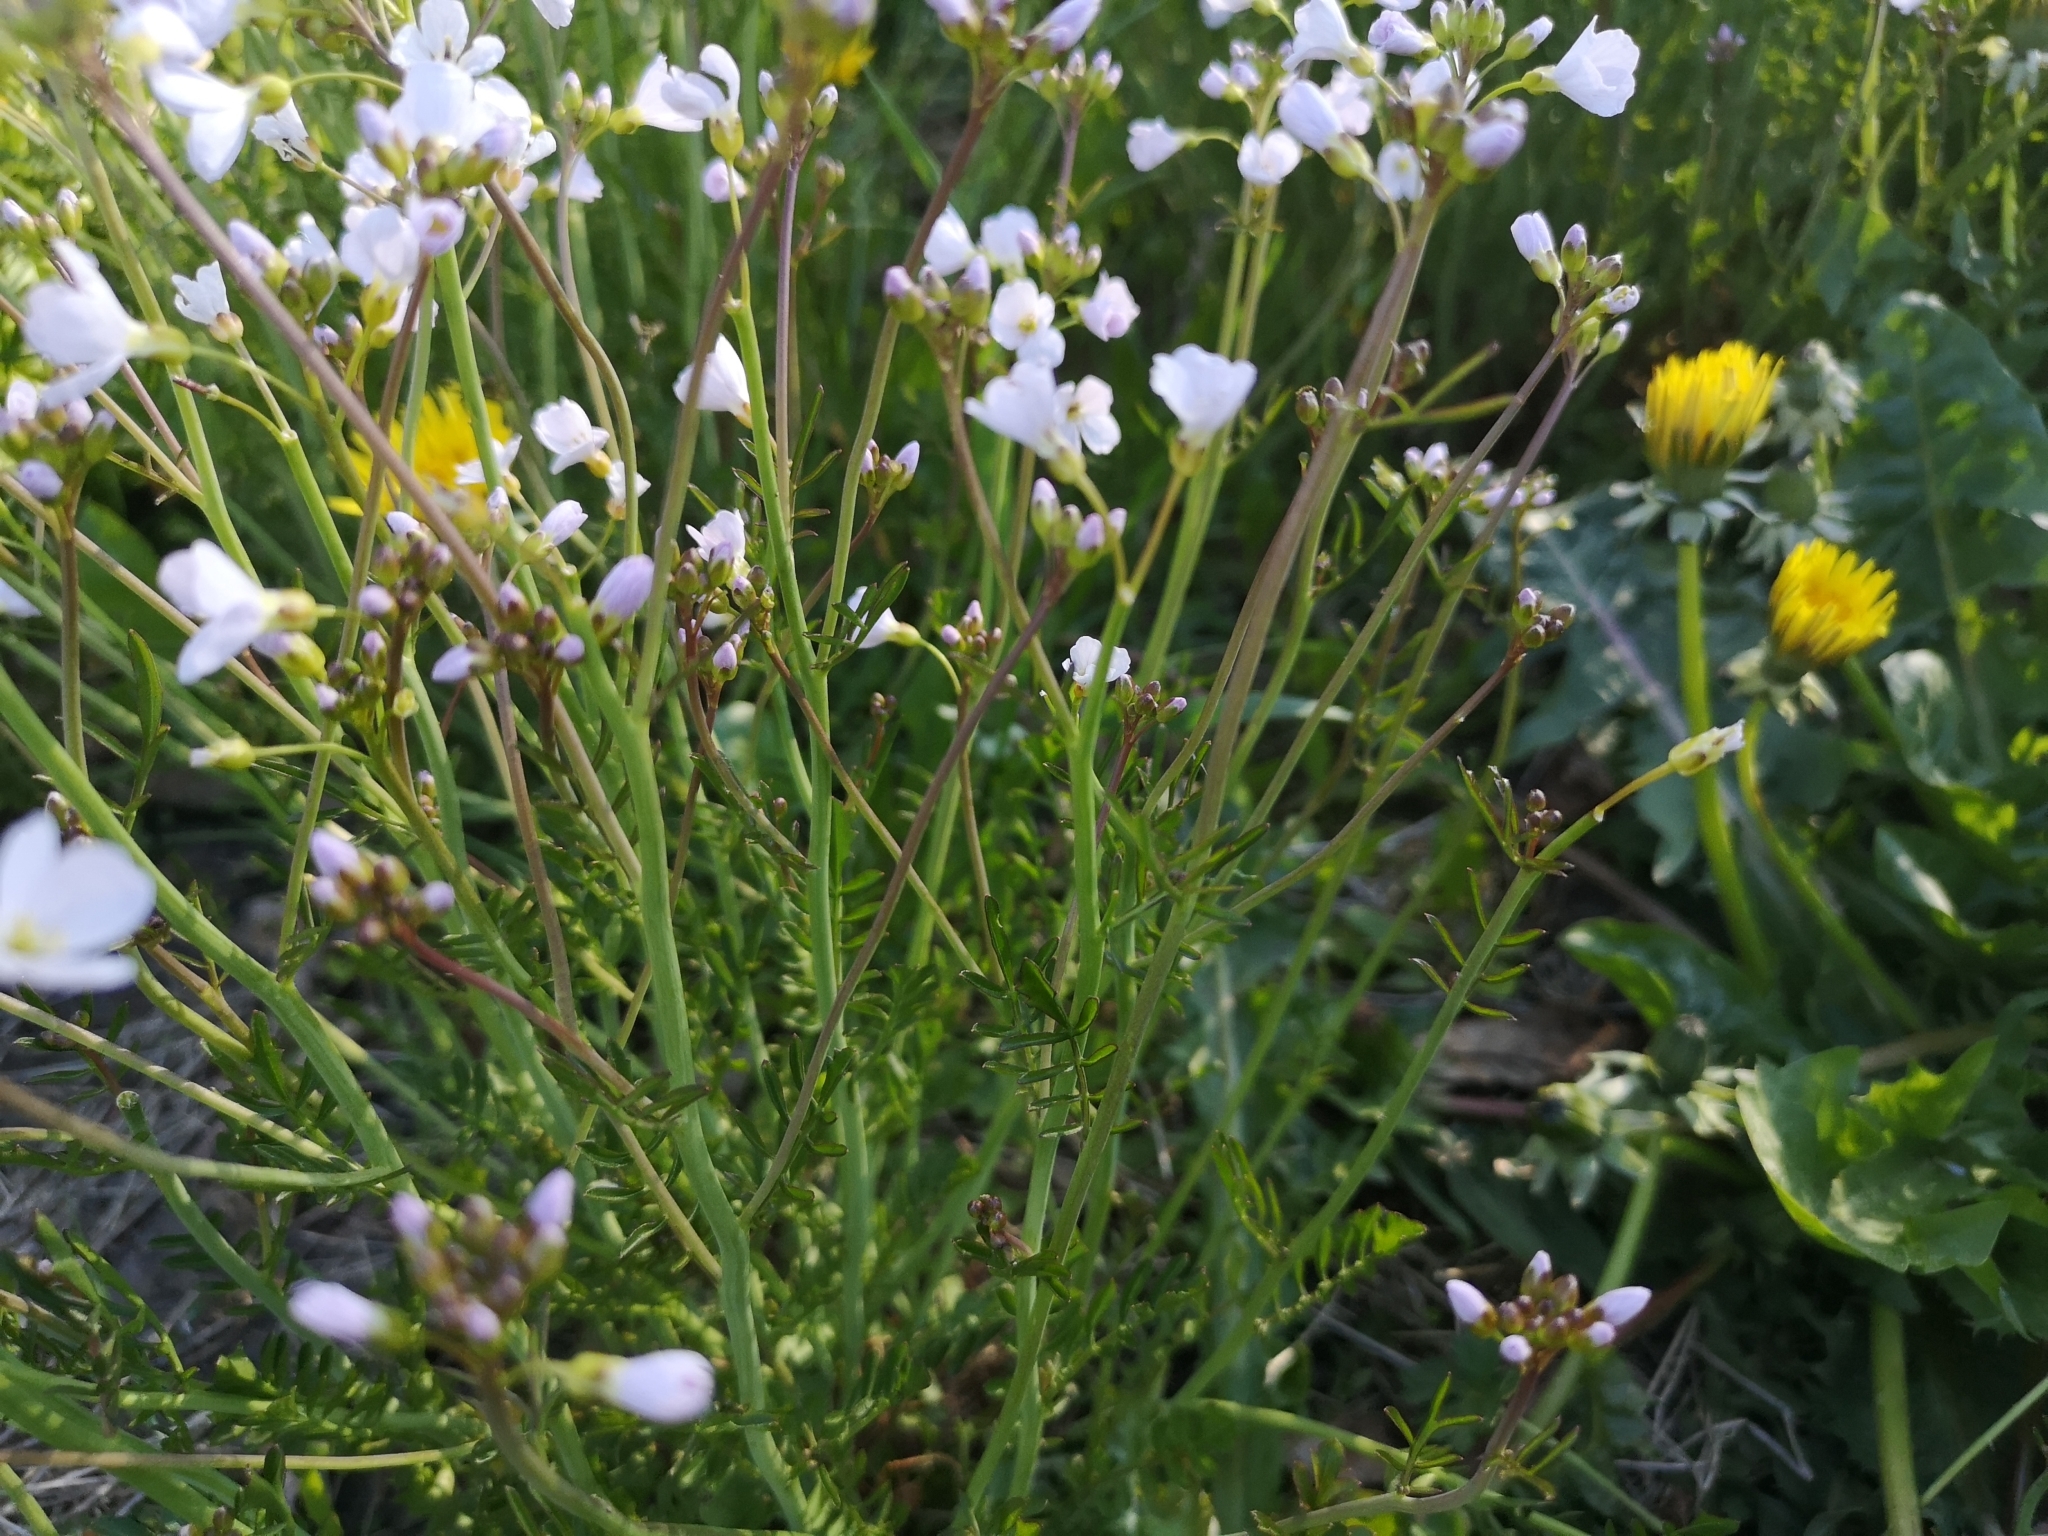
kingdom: Plantae
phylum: Tracheophyta
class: Magnoliopsida
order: Brassicales
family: Brassicaceae
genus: Cardamine
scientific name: Cardamine pratensis
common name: Cuckoo flower
